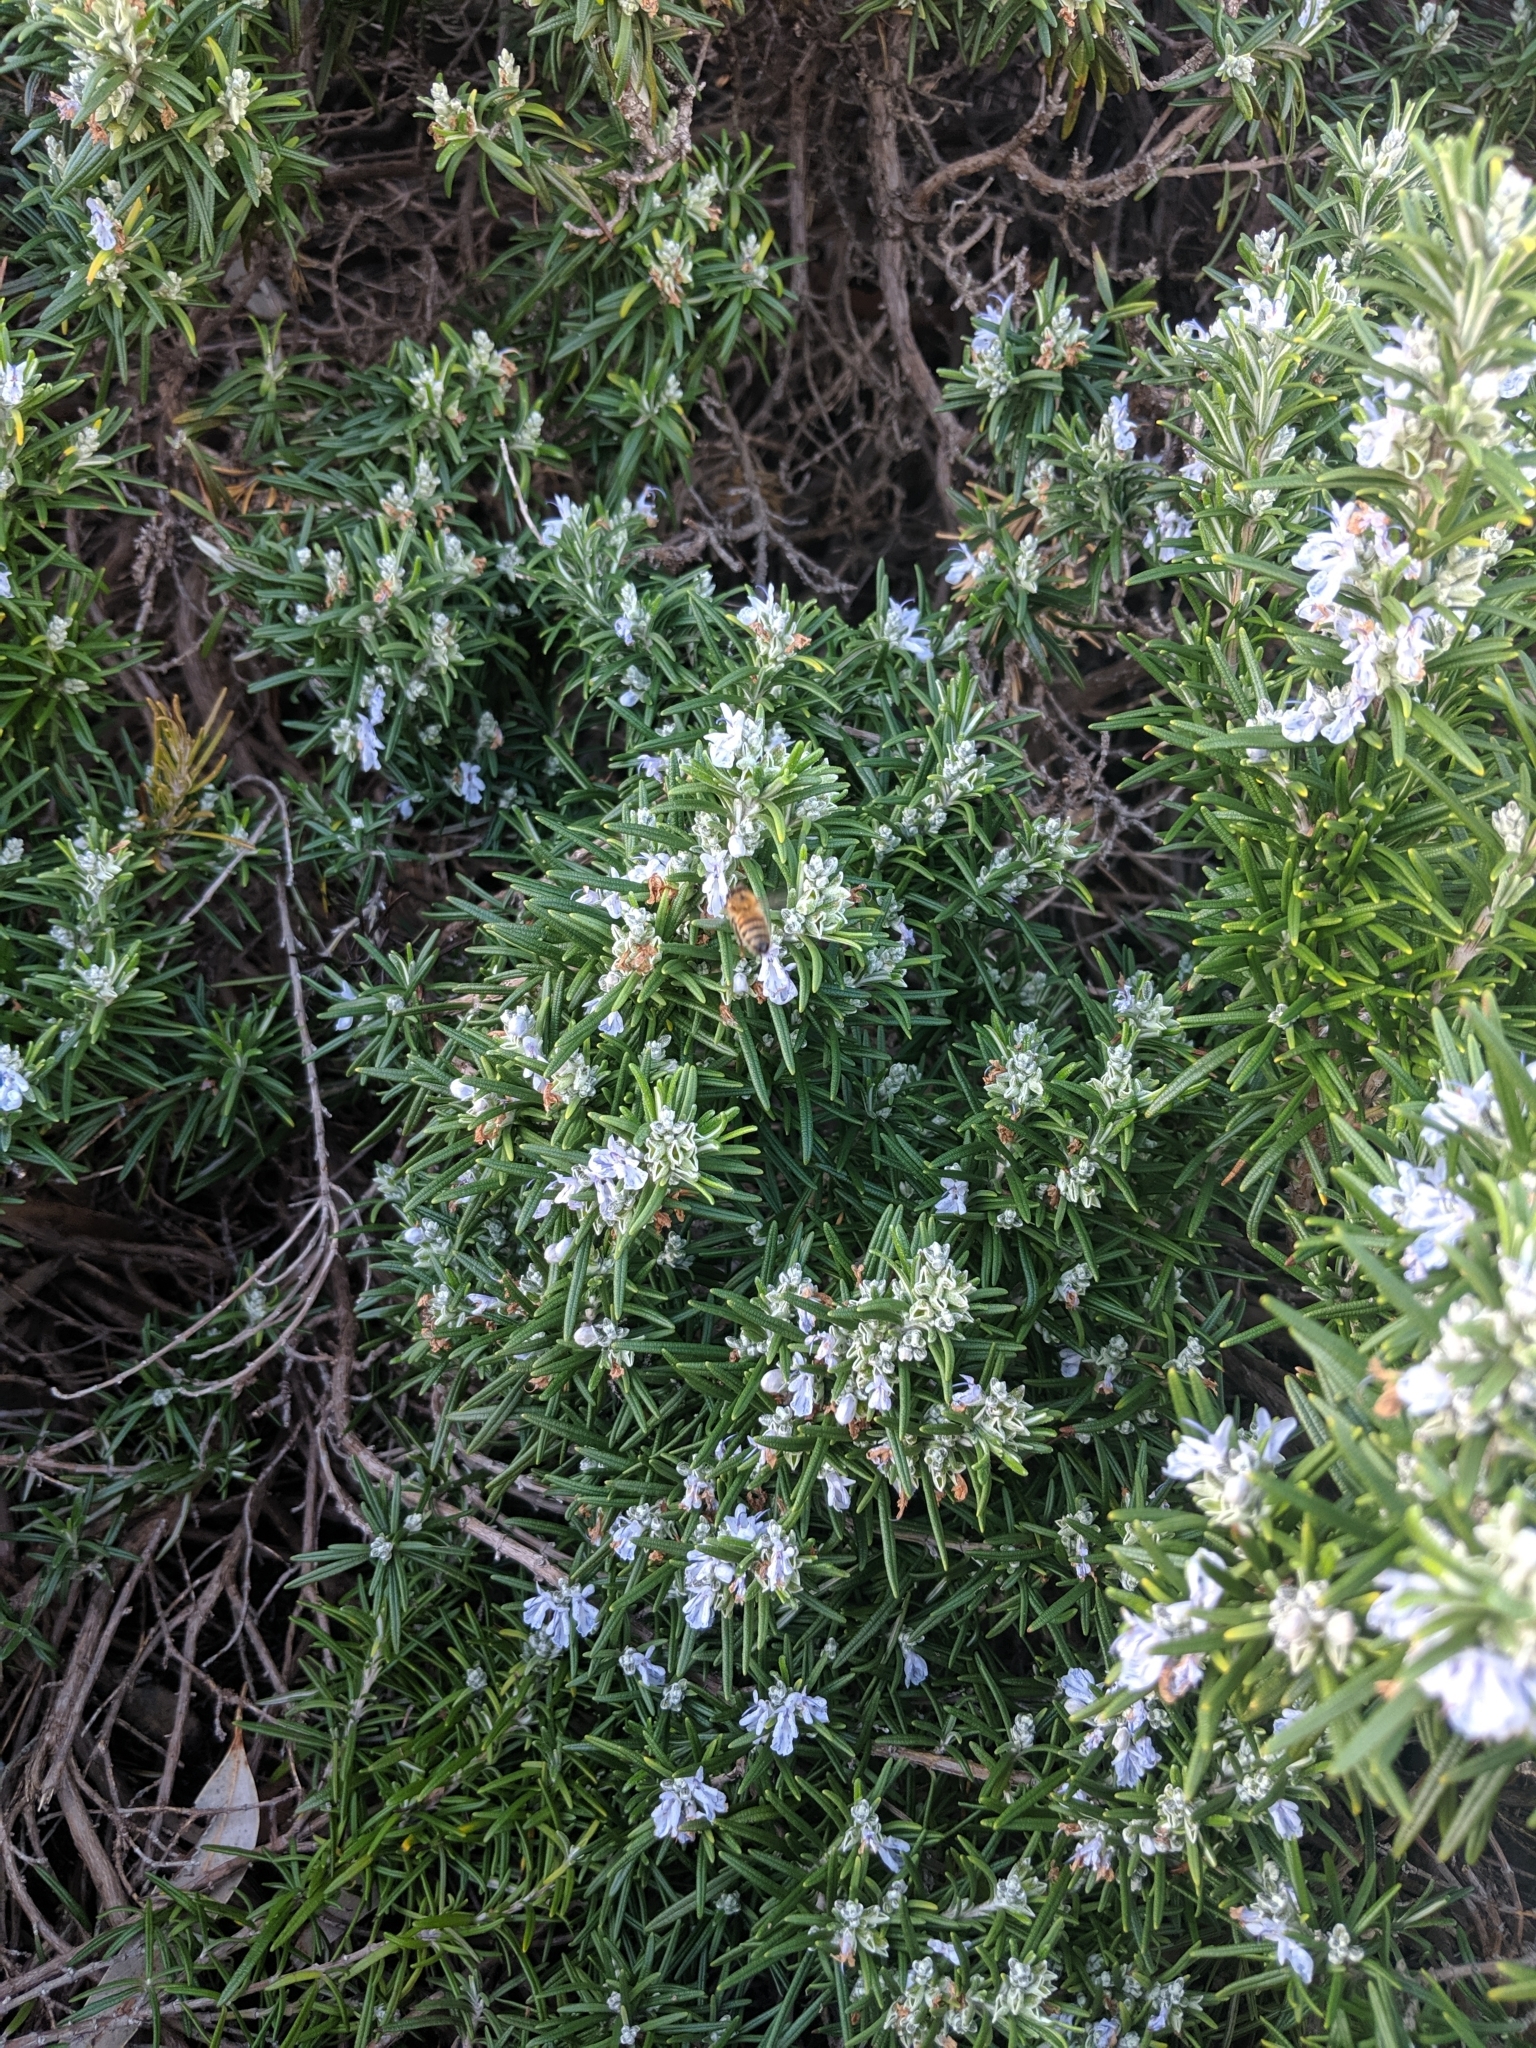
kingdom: Animalia
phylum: Arthropoda
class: Insecta
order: Hymenoptera
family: Apidae
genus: Apis
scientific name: Apis mellifera
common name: Honey bee
